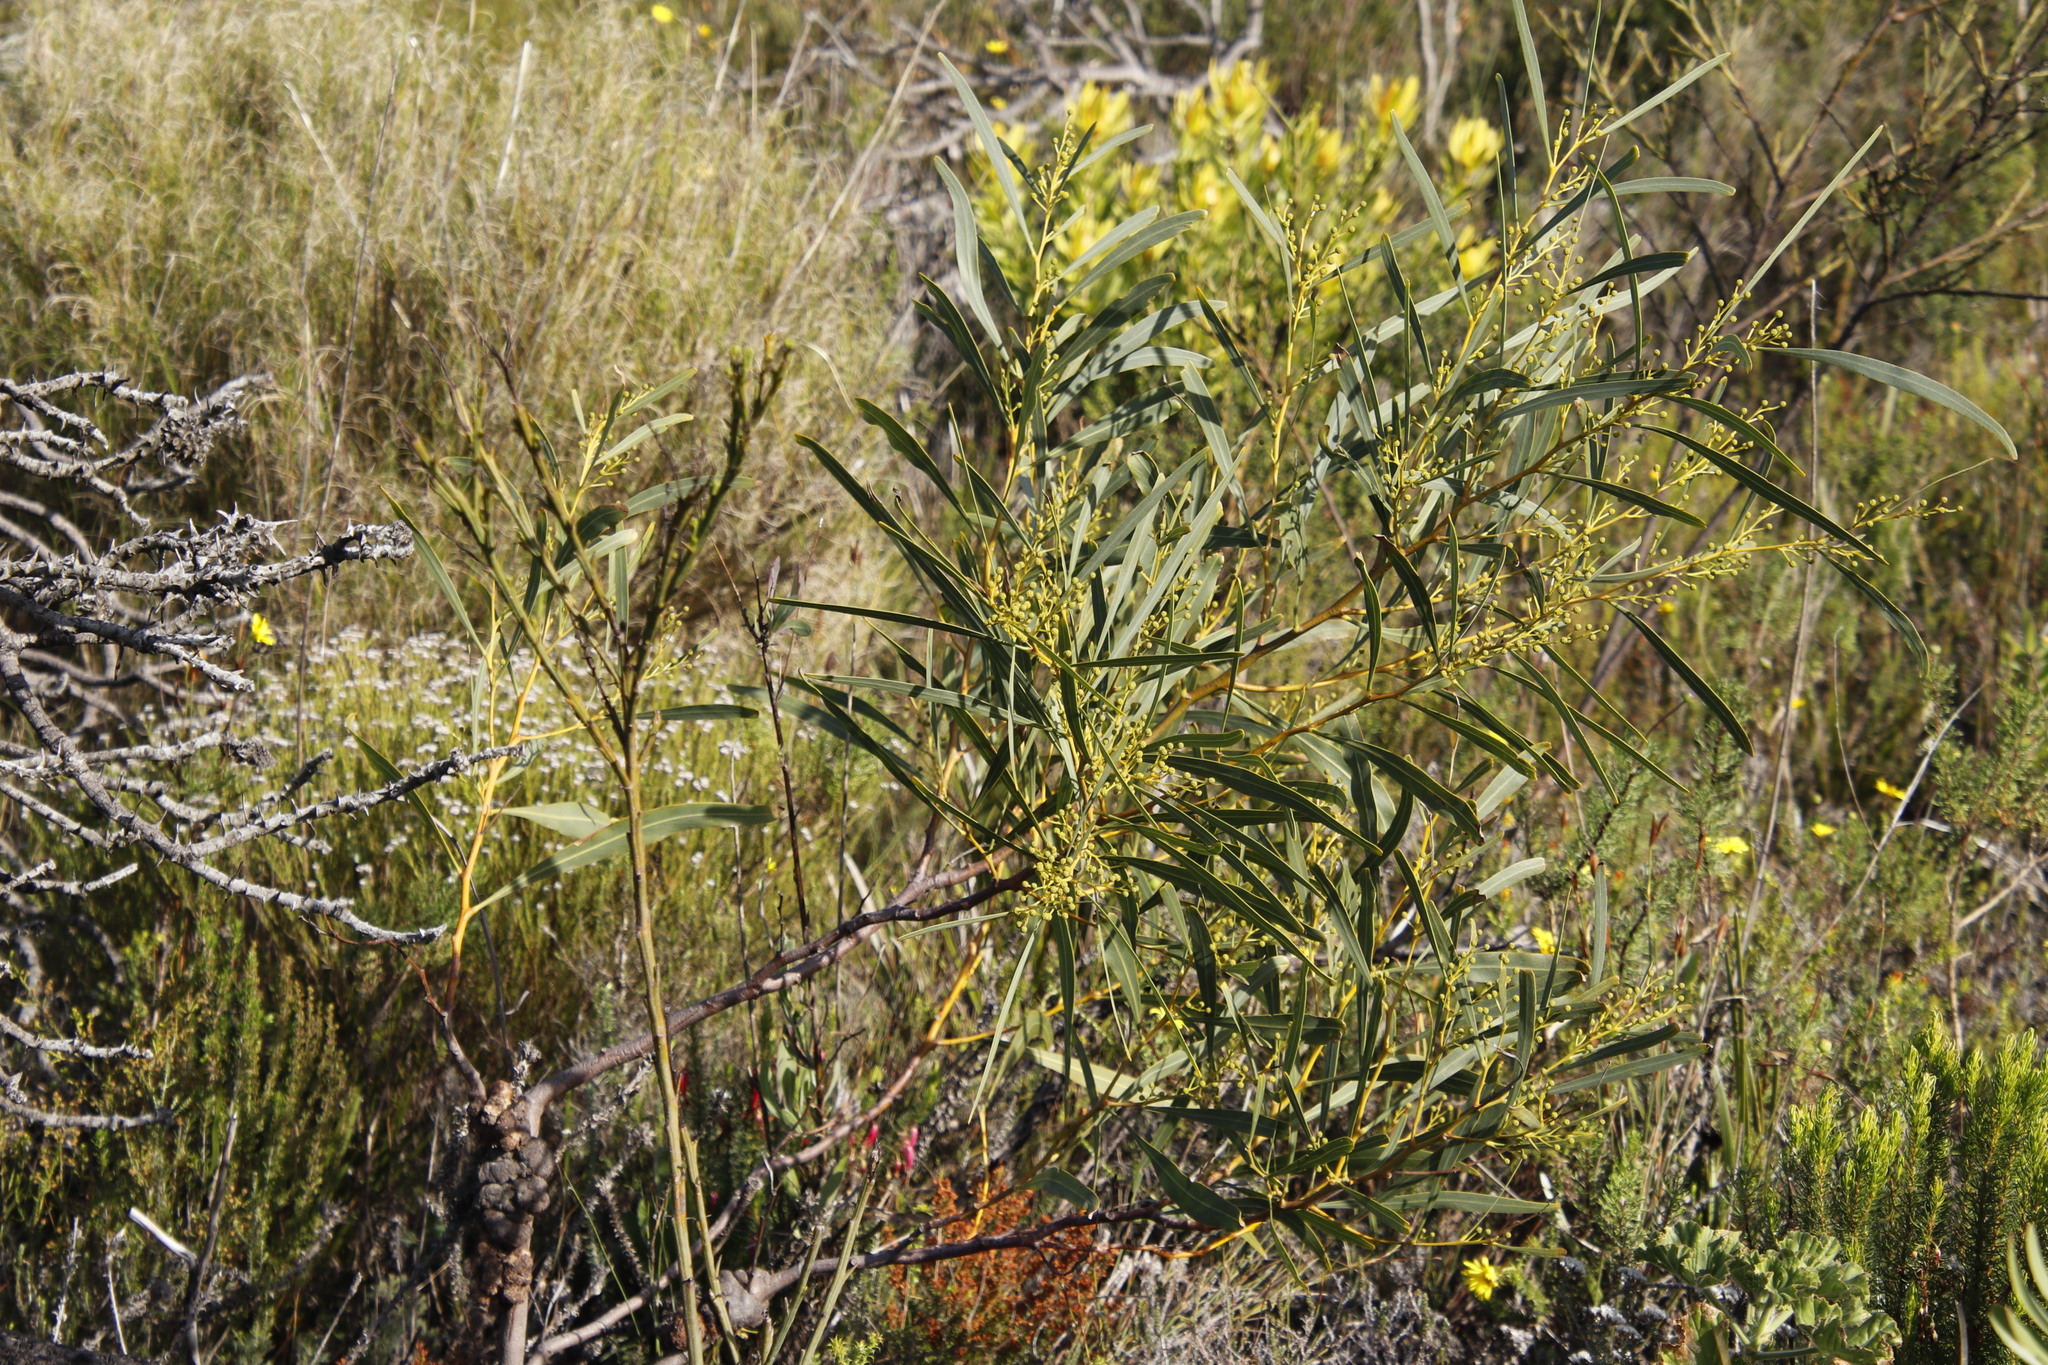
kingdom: Plantae
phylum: Tracheophyta
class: Magnoliopsida
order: Fabales
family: Fabaceae
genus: Acacia
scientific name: Acacia saligna
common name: Orange wattle
